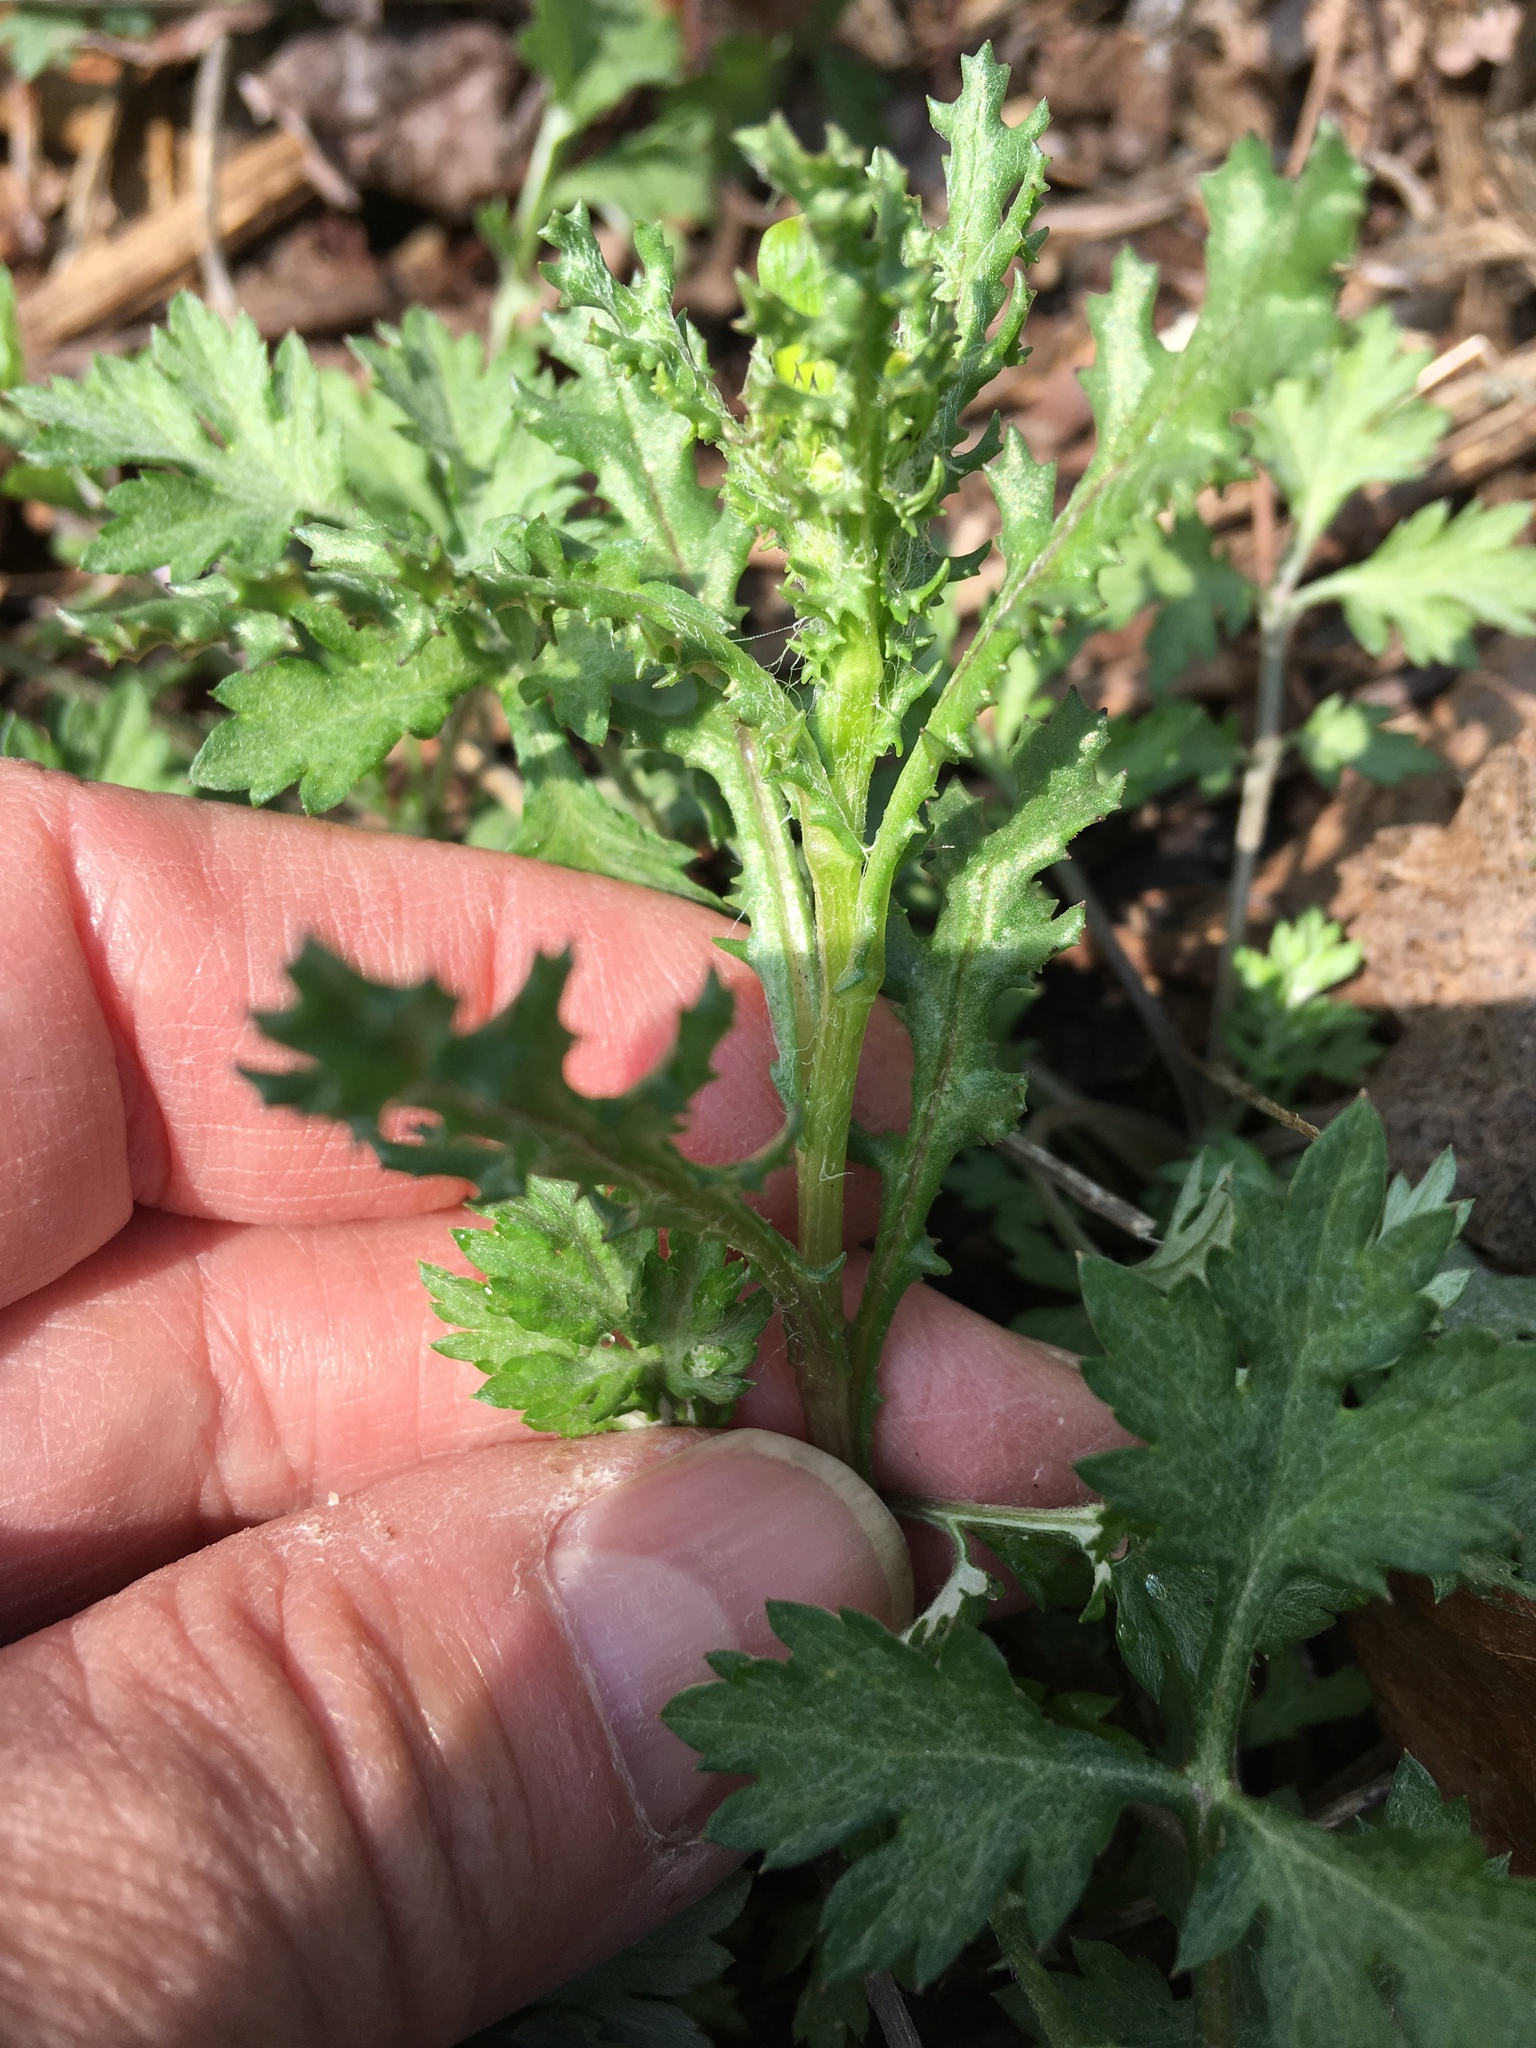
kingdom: Plantae
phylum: Tracheophyta
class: Magnoliopsida
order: Asterales
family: Asteraceae
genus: Senecio
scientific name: Senecio vulgaris
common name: Old-man-in-the-spring
